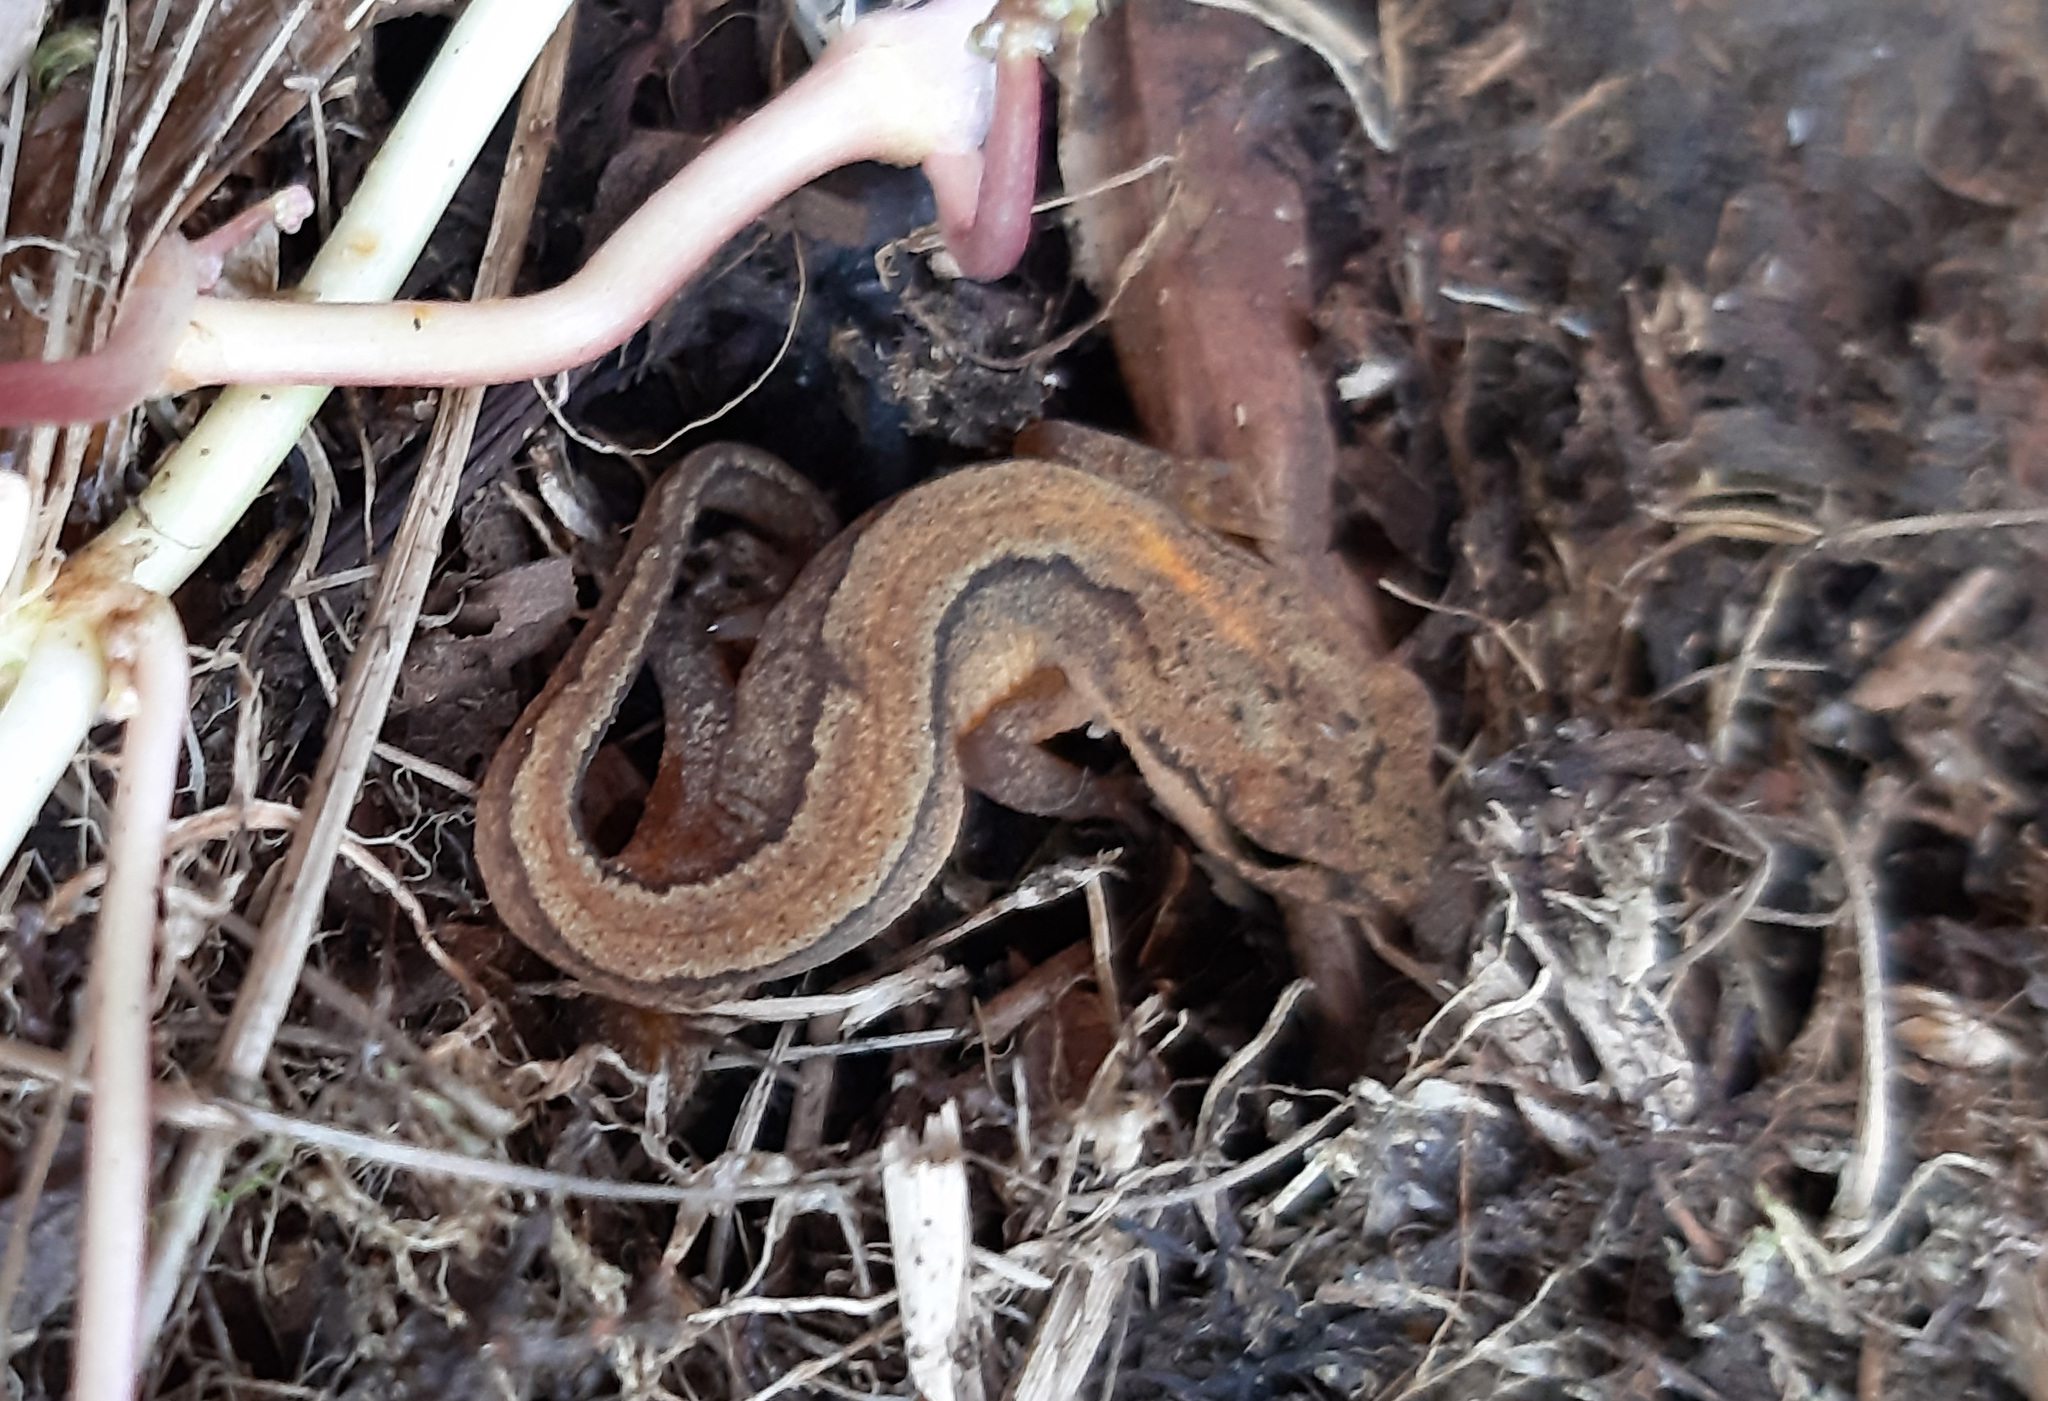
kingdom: Animalia
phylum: Chordata
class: Amphibia
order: Caudata
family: Salamandridae
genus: Lissotriton
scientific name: Lissotriton vulgaris
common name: Smooth newt
